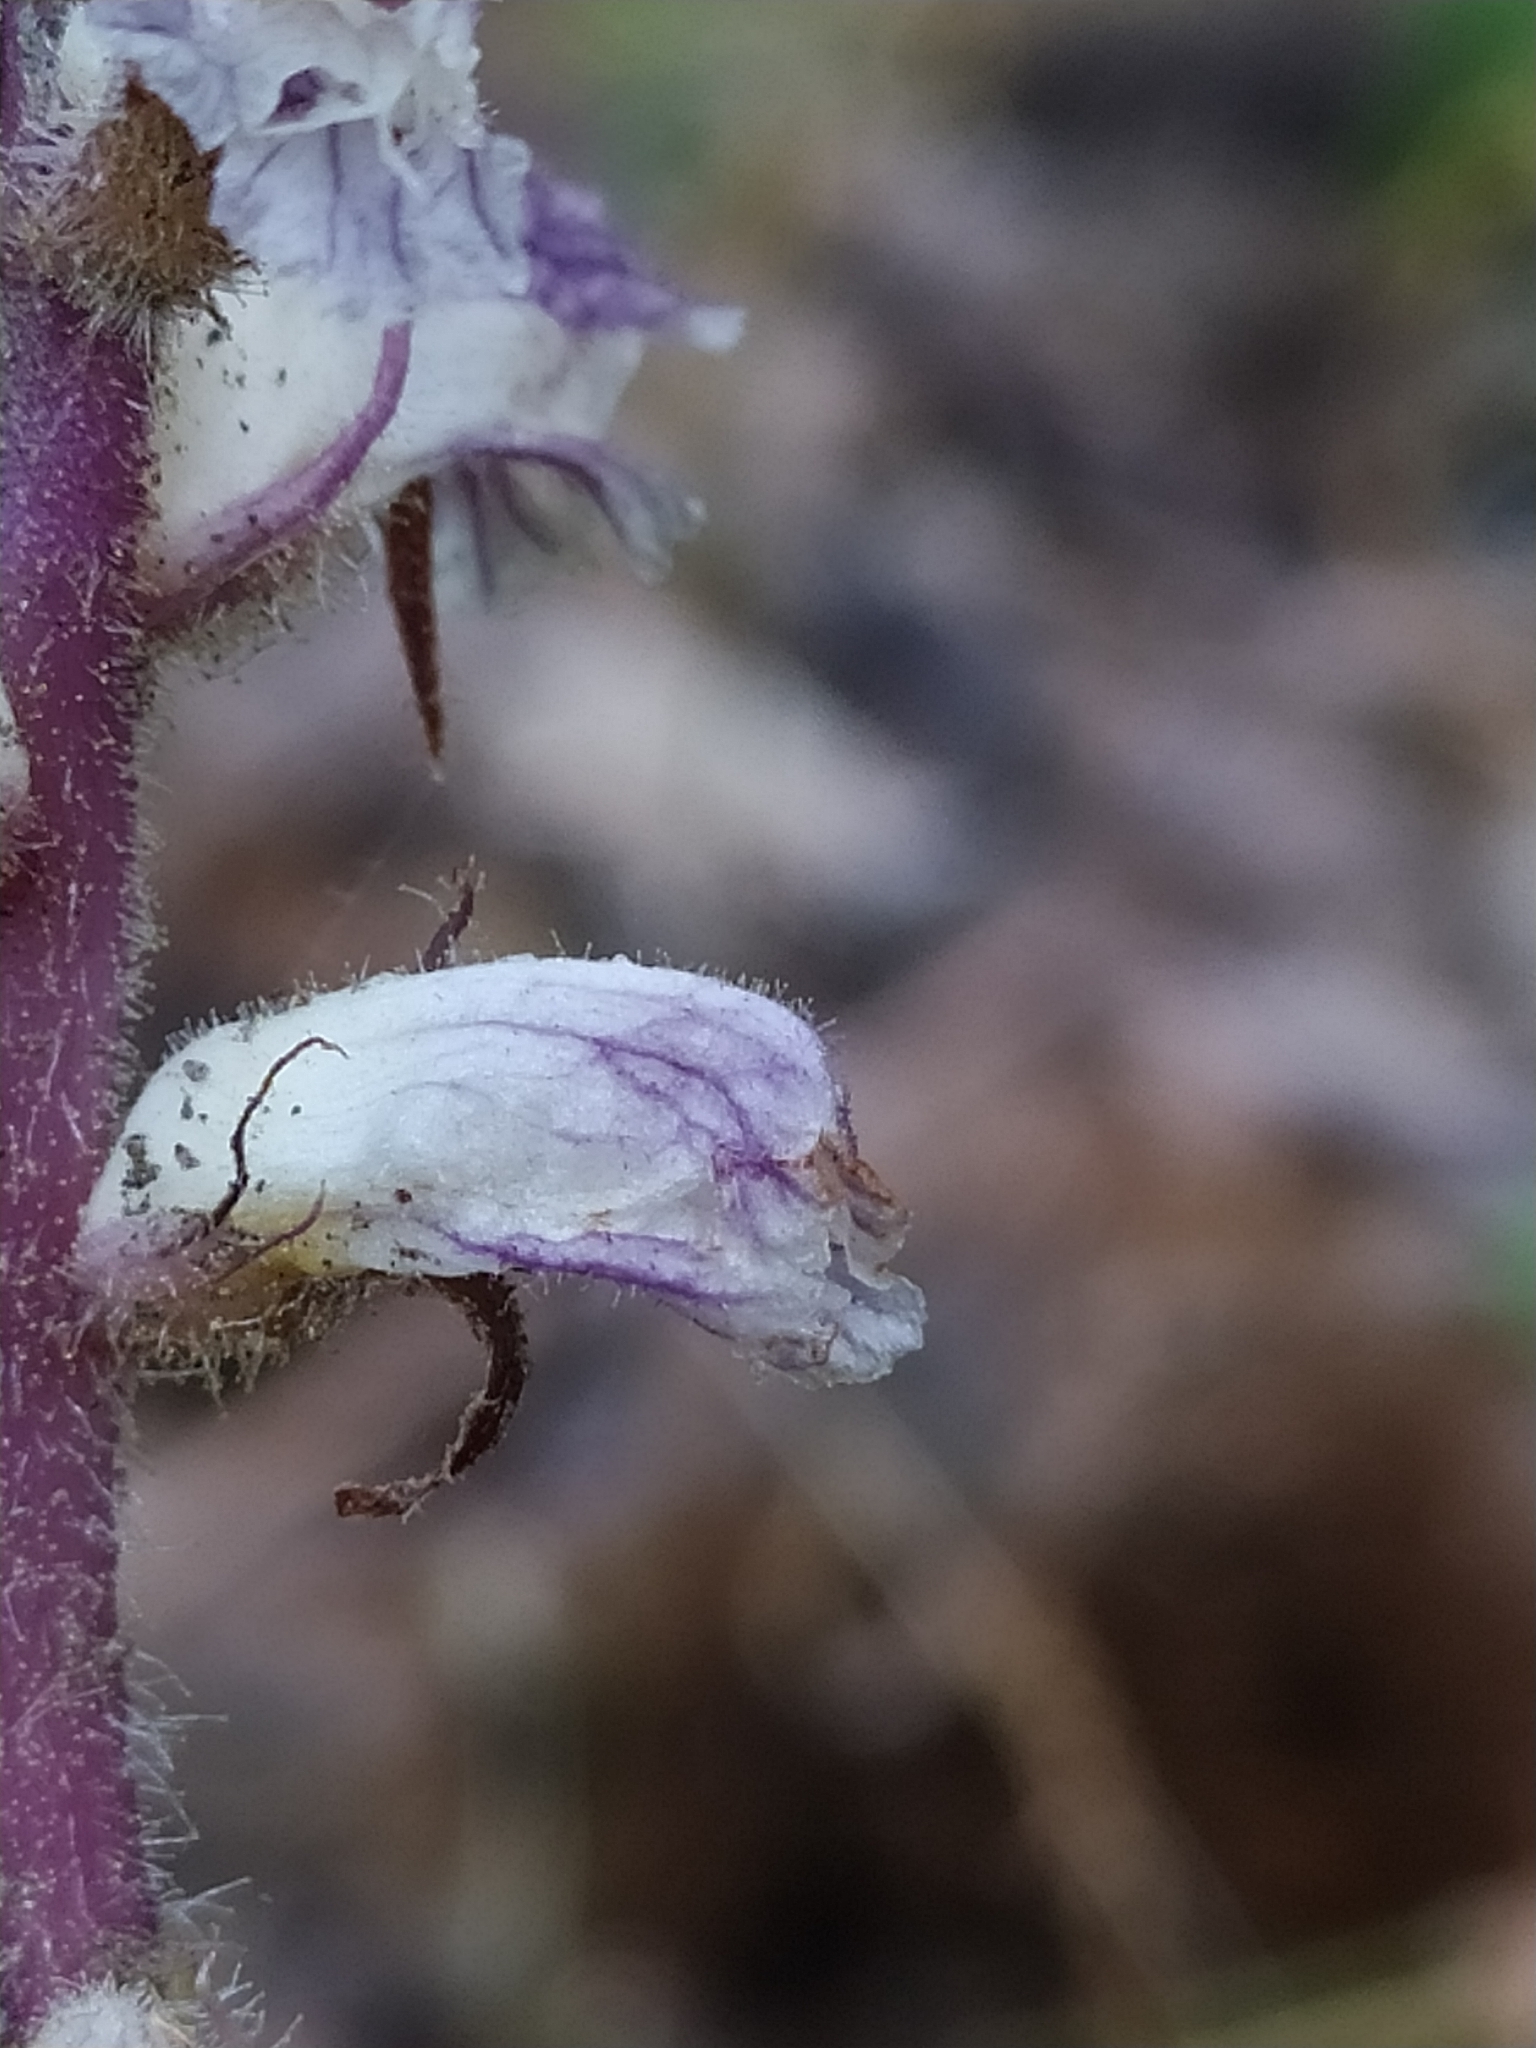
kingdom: Plantae
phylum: Tracheophyta
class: Magnoliopsida
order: Lamiales
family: Orobanchaceae
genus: Orobanche
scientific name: Orobanche crenata
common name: Bean broomrape
